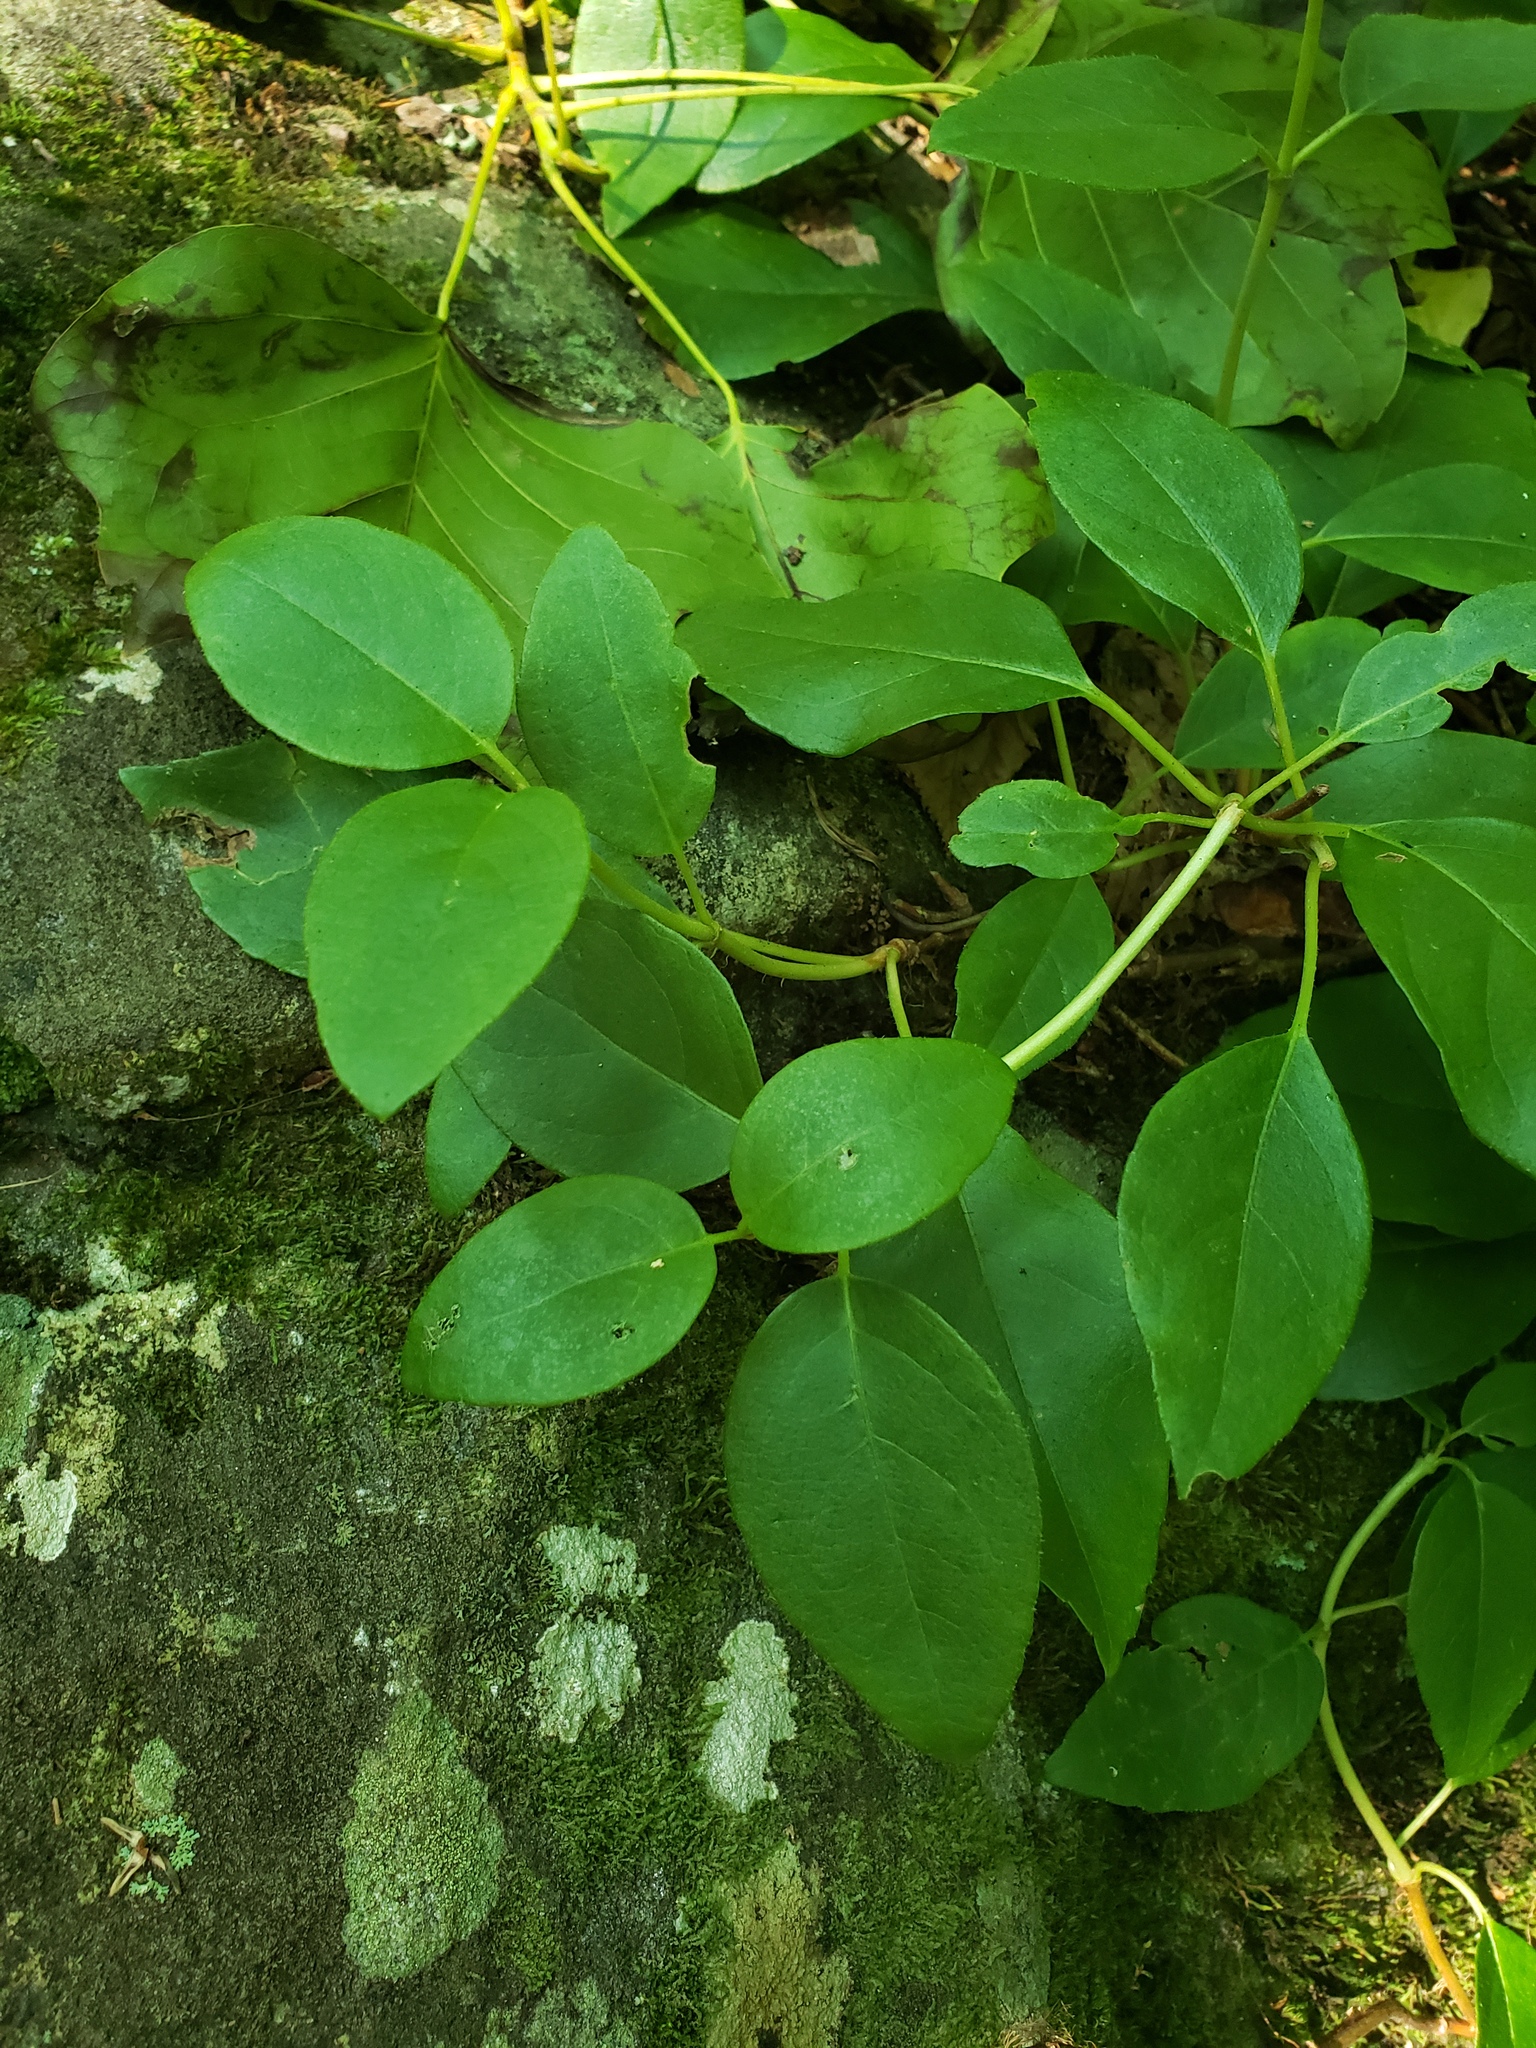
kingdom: Plantae
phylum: Tracheophyta
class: Magnoliopsida
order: Cornales
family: Hydrangeaceae
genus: Hydrangea
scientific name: Hydrangea barbara
